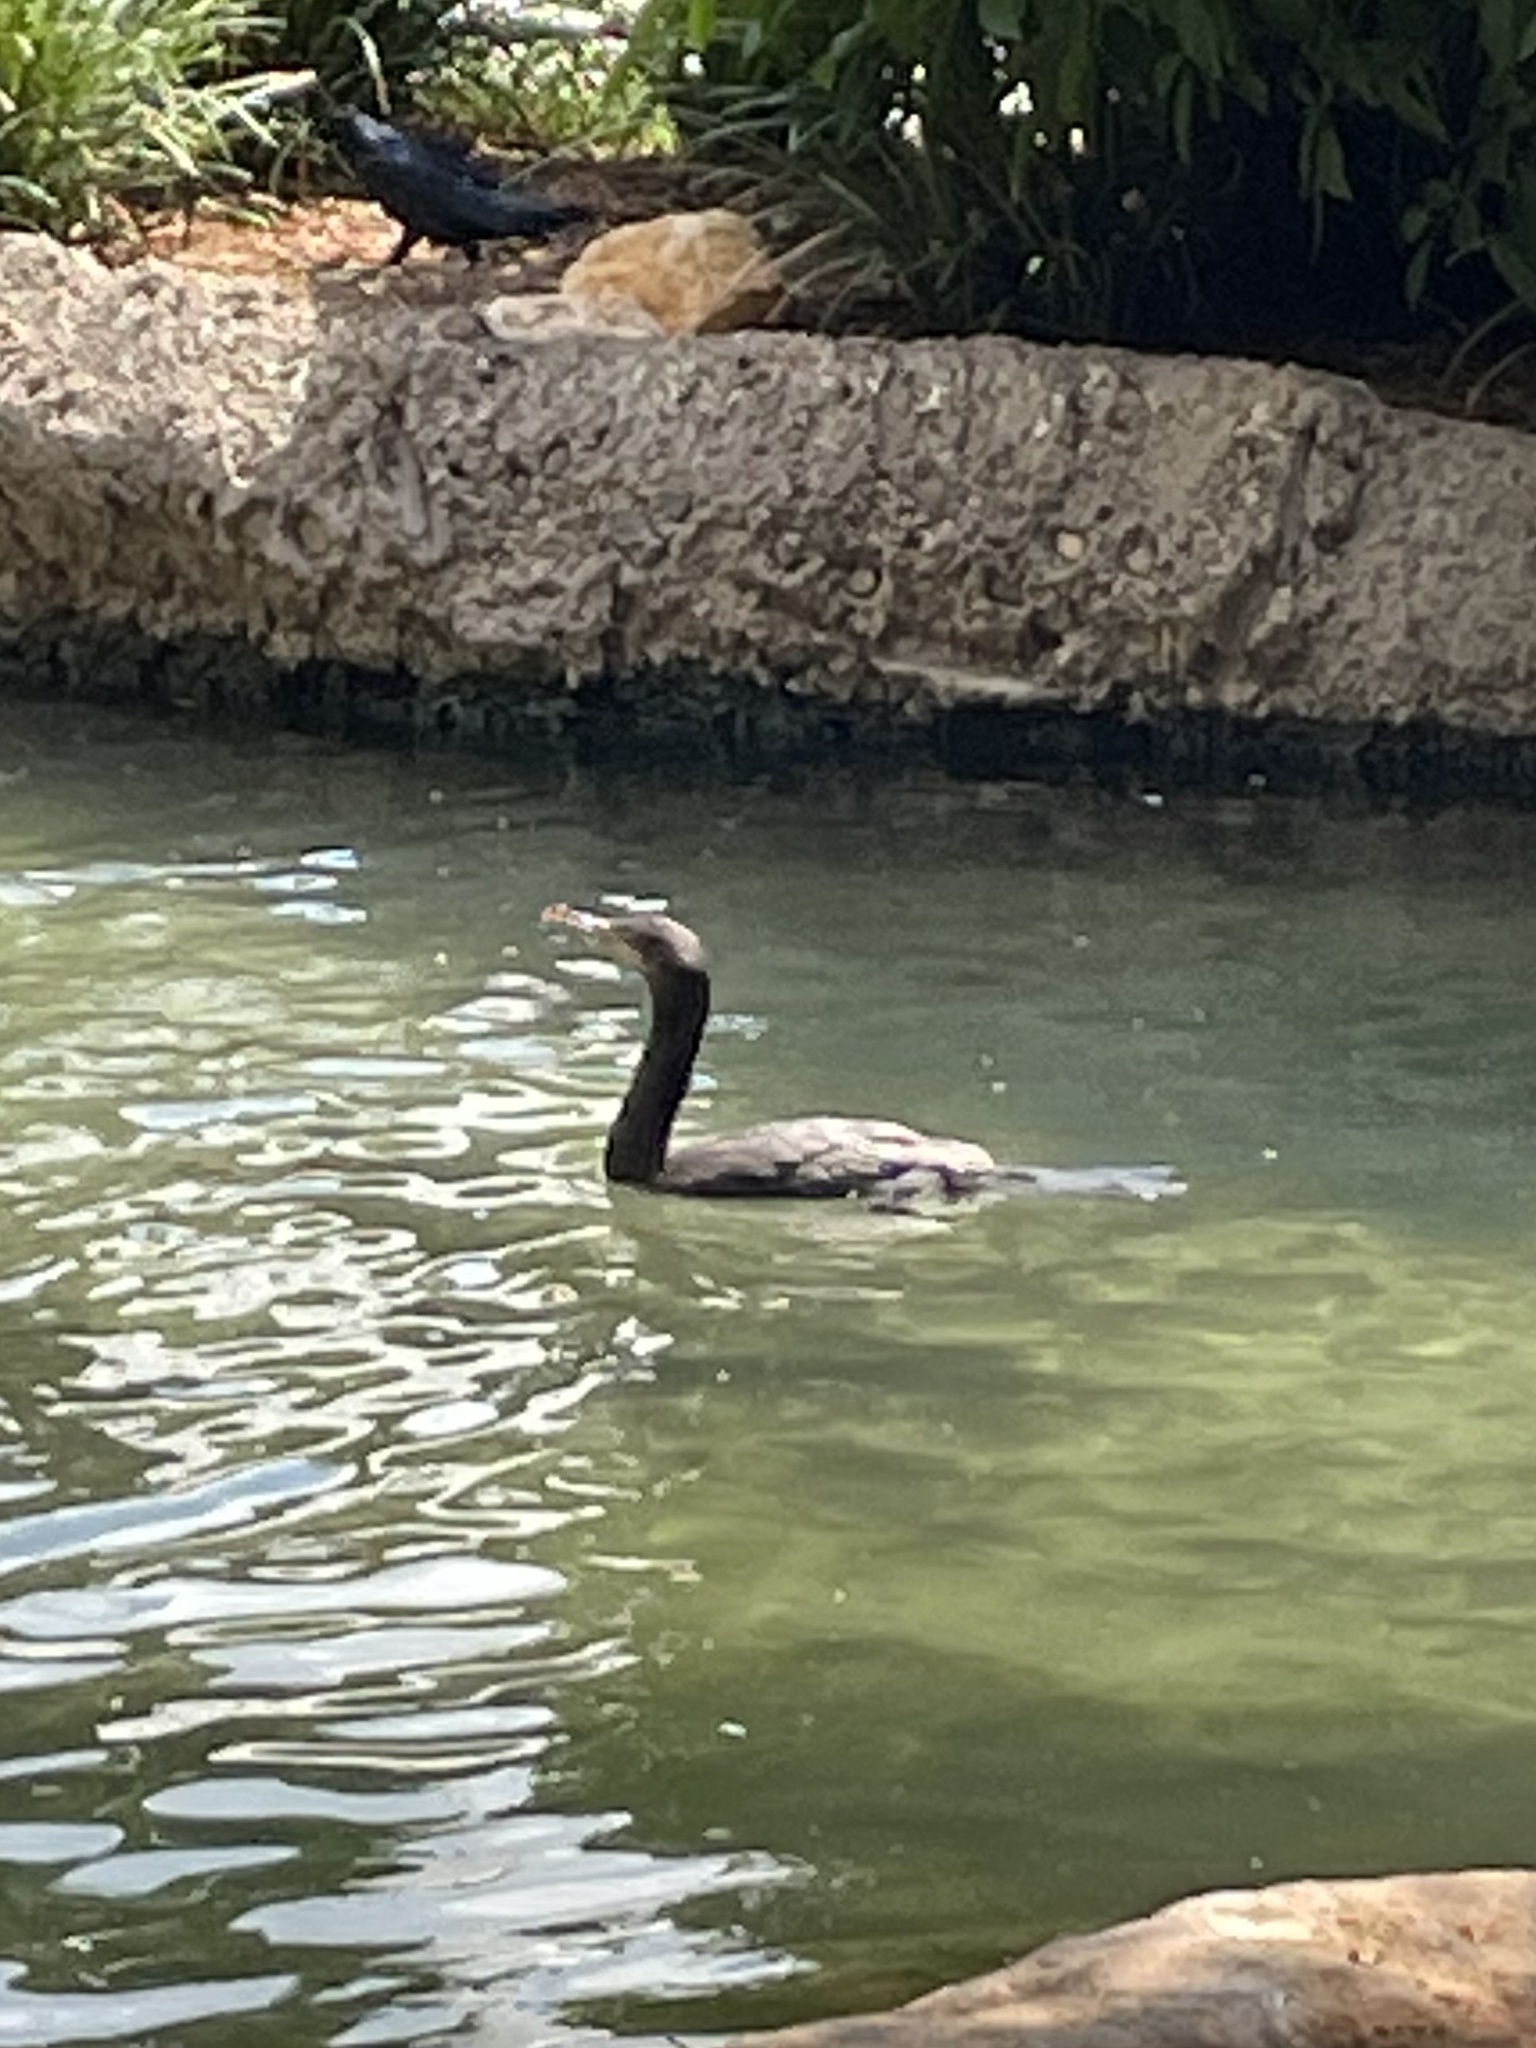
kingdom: Animalia
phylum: Chordata
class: Aves
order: Suliformes
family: Phalacrocoracidae
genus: Phalacrocorax
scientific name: Phalacrocorax brasilianus
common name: Neotropic cormorant
